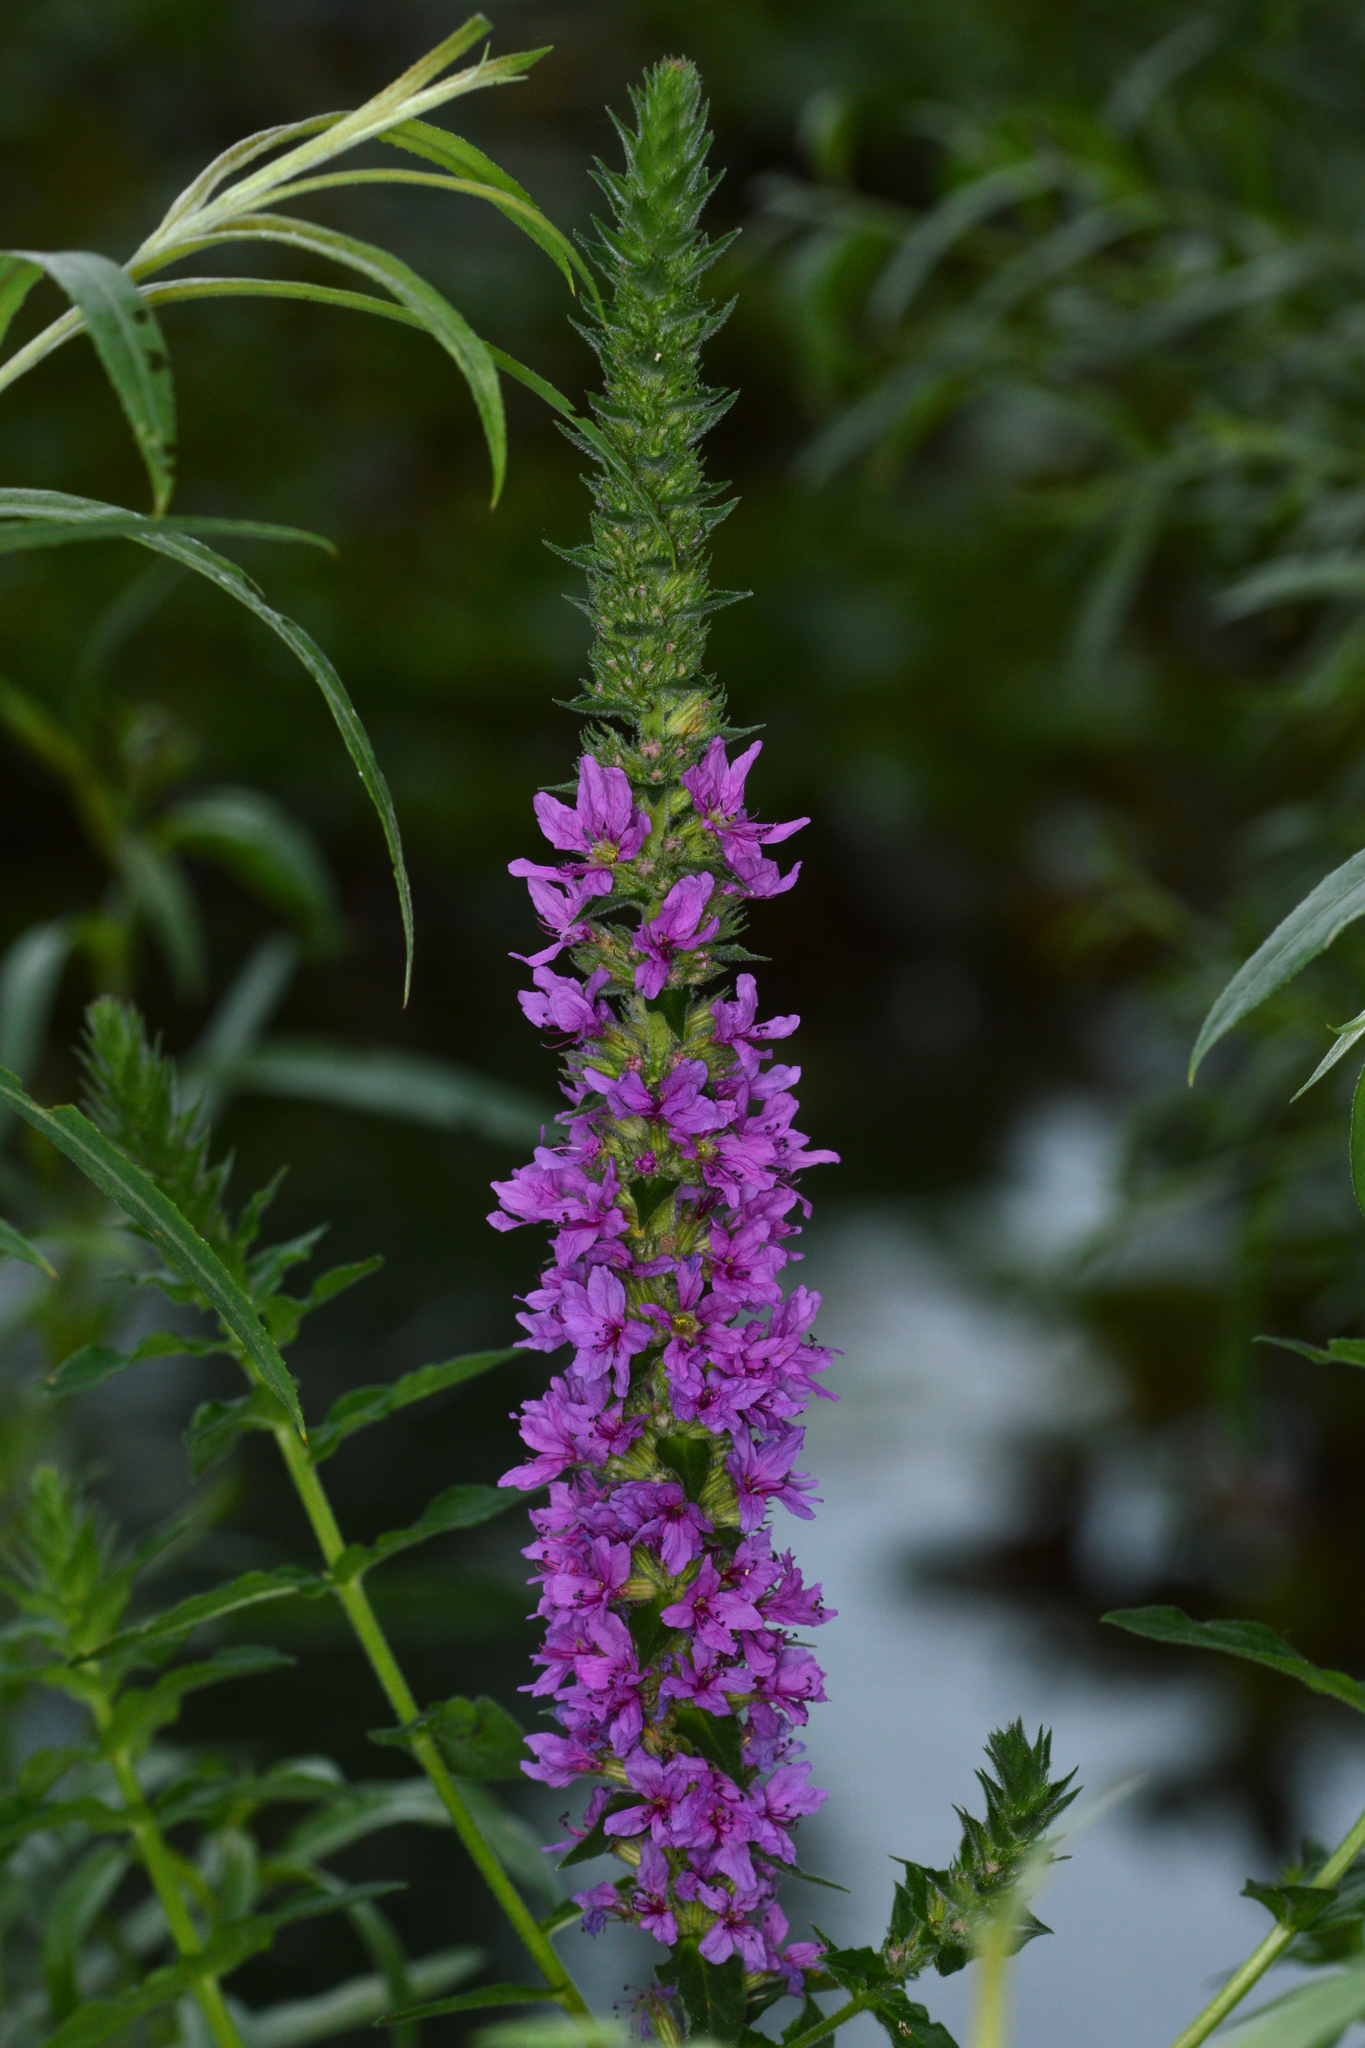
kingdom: Plantae
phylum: Tracheophyta
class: Magnoliopsida
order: Myrtales
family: Lythraceae
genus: Lythrum
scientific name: Lythrum salicaria
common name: Purple loosestrife
